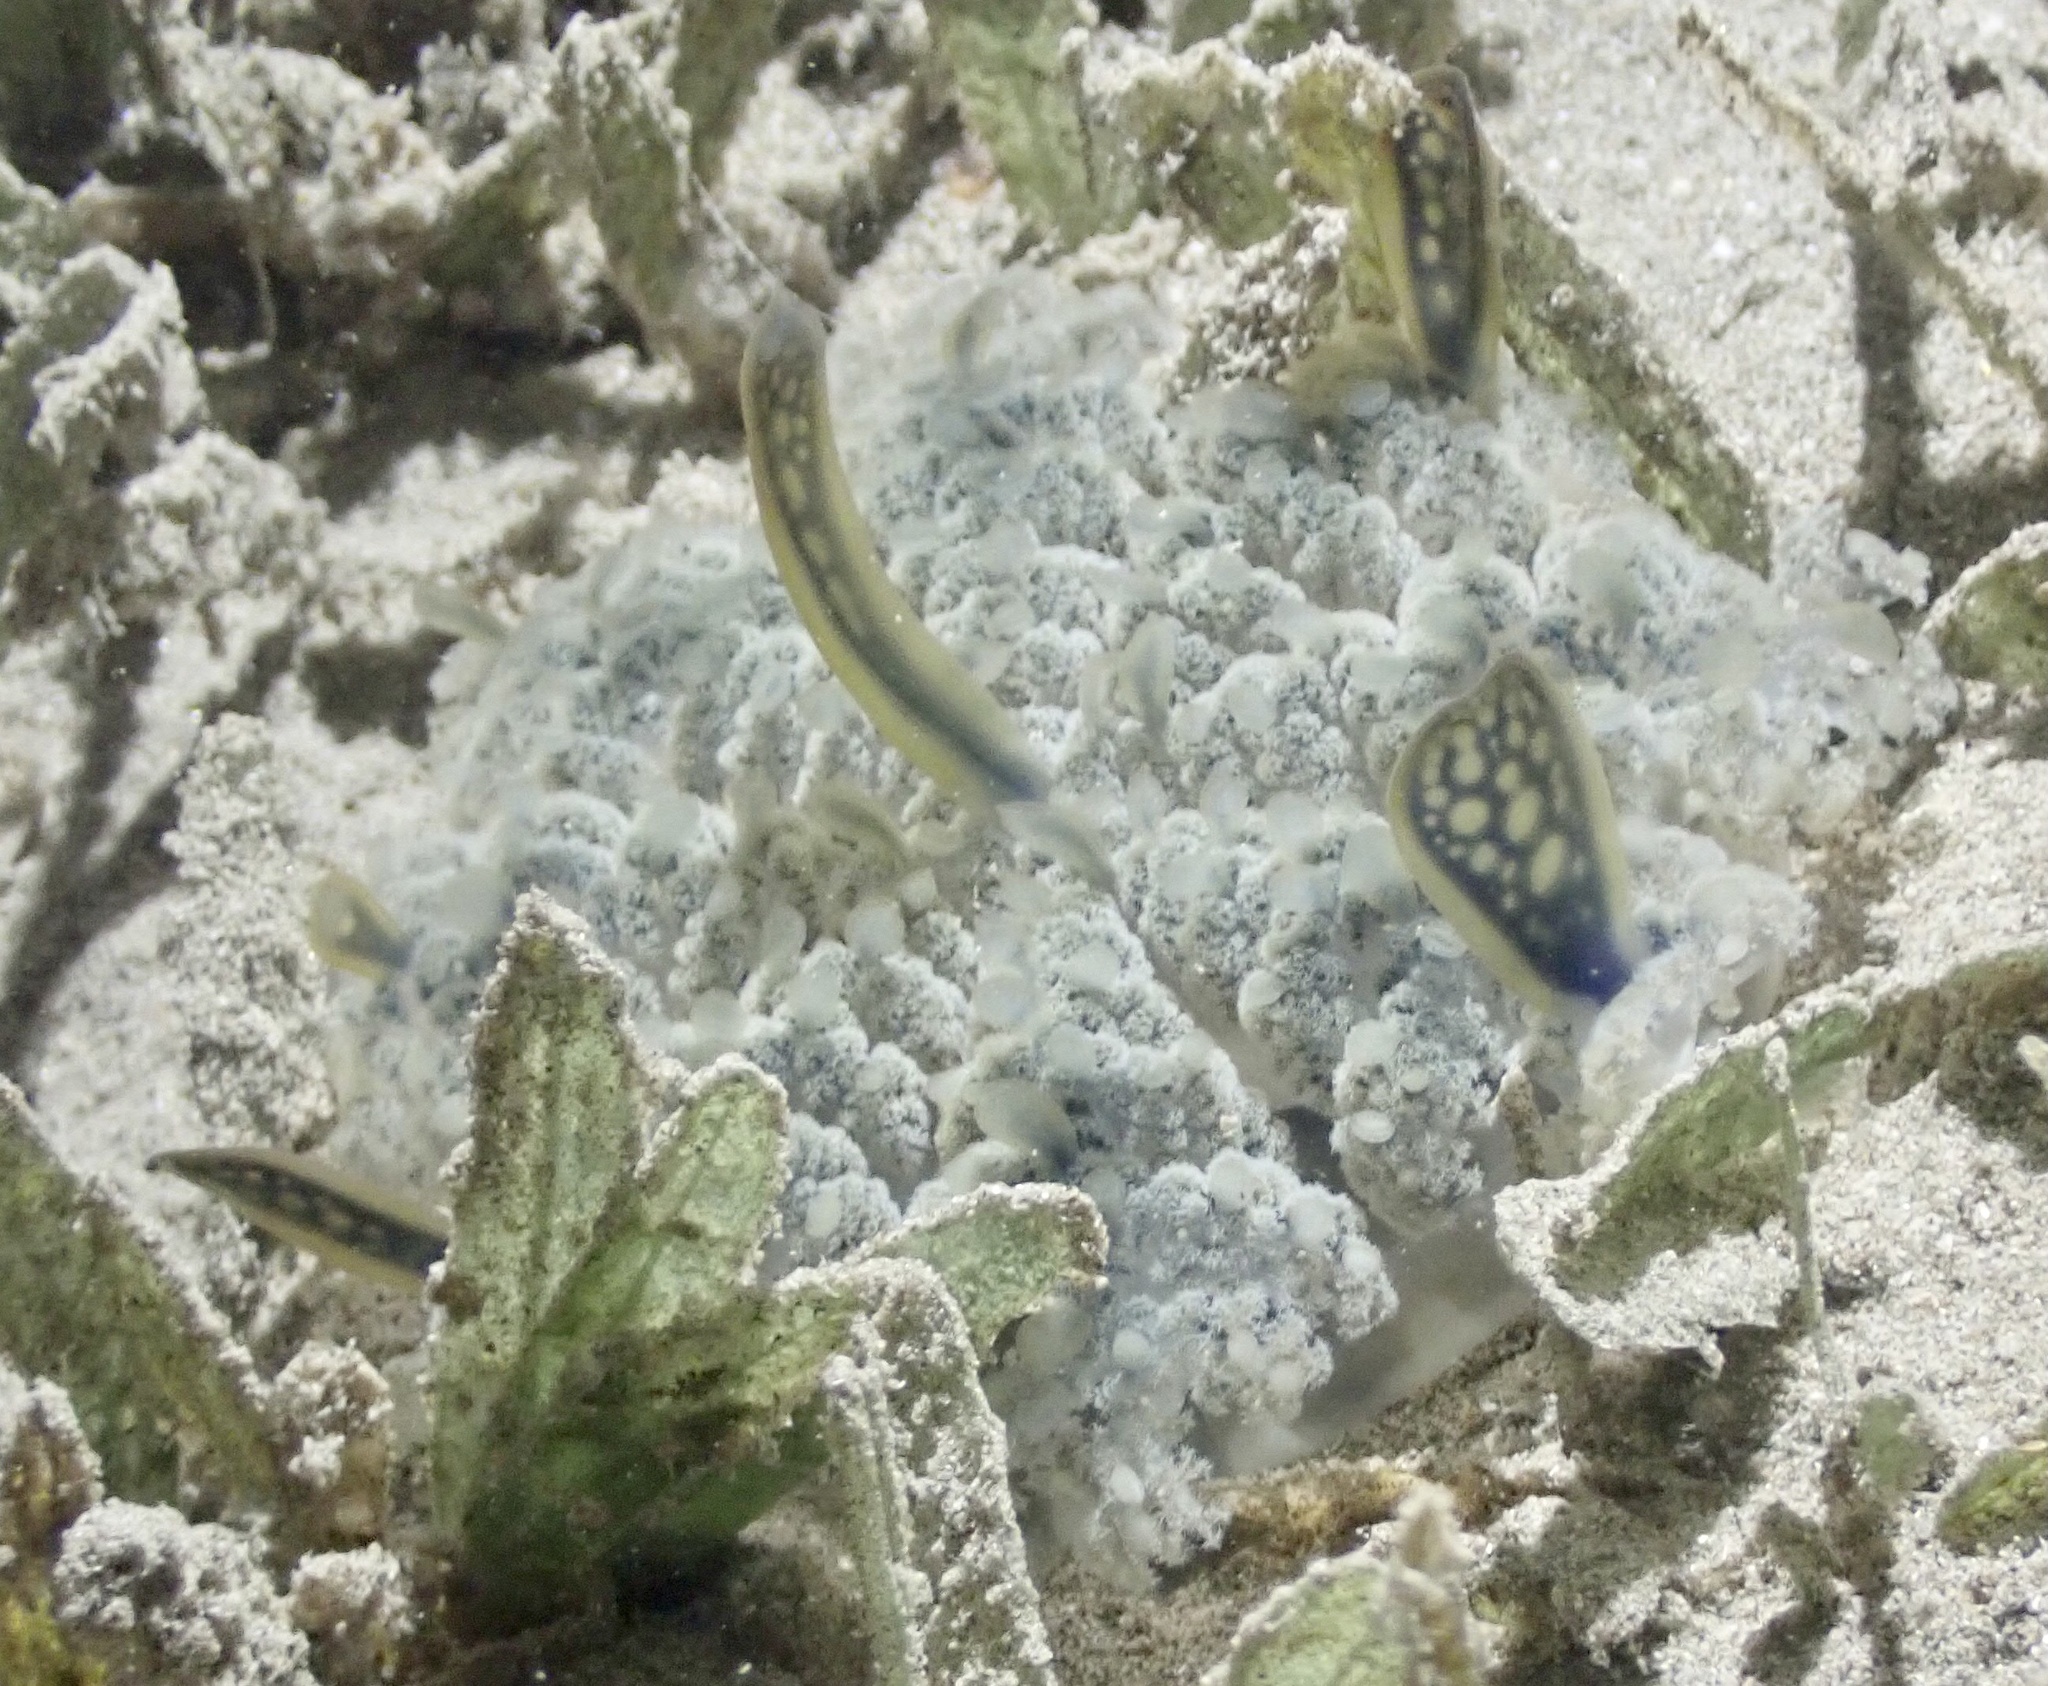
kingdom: Animalia
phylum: Cnidaria
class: Scyphozoa
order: Rhizostomeae
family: Cassiopeidae
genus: Cassiopea
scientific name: Cassiopea andromeda
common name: Upside-down jellyfish
